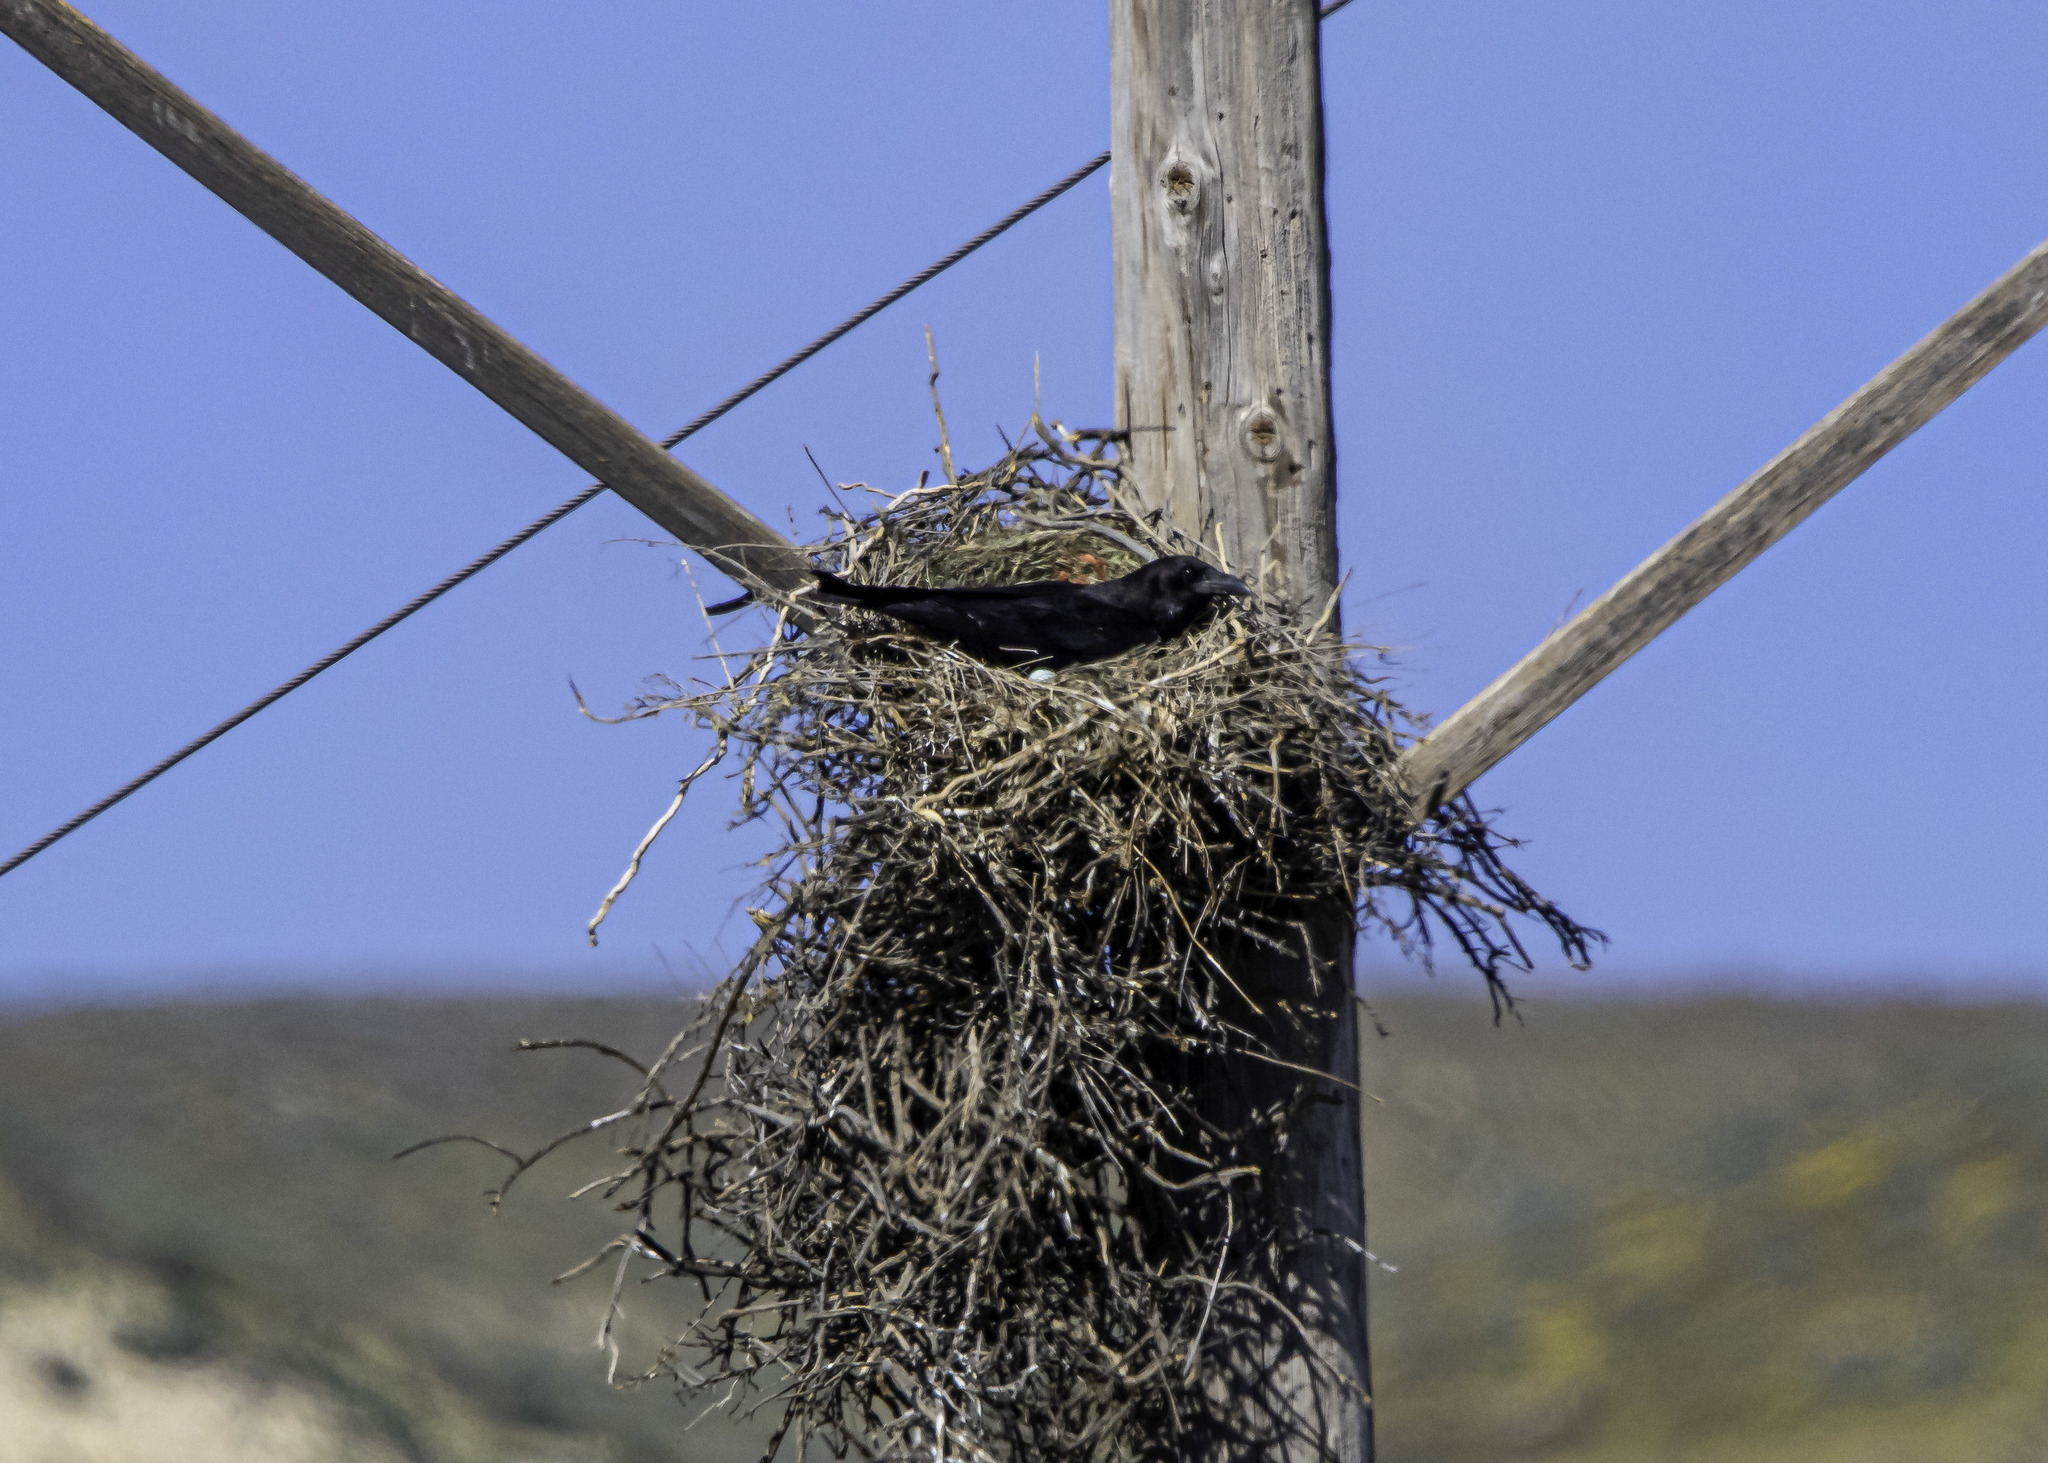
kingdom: Animalia
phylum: Chordata
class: Aves
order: Passeriformes
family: Corvidae
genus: Corvus
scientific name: Corvus corax
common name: Common raven
